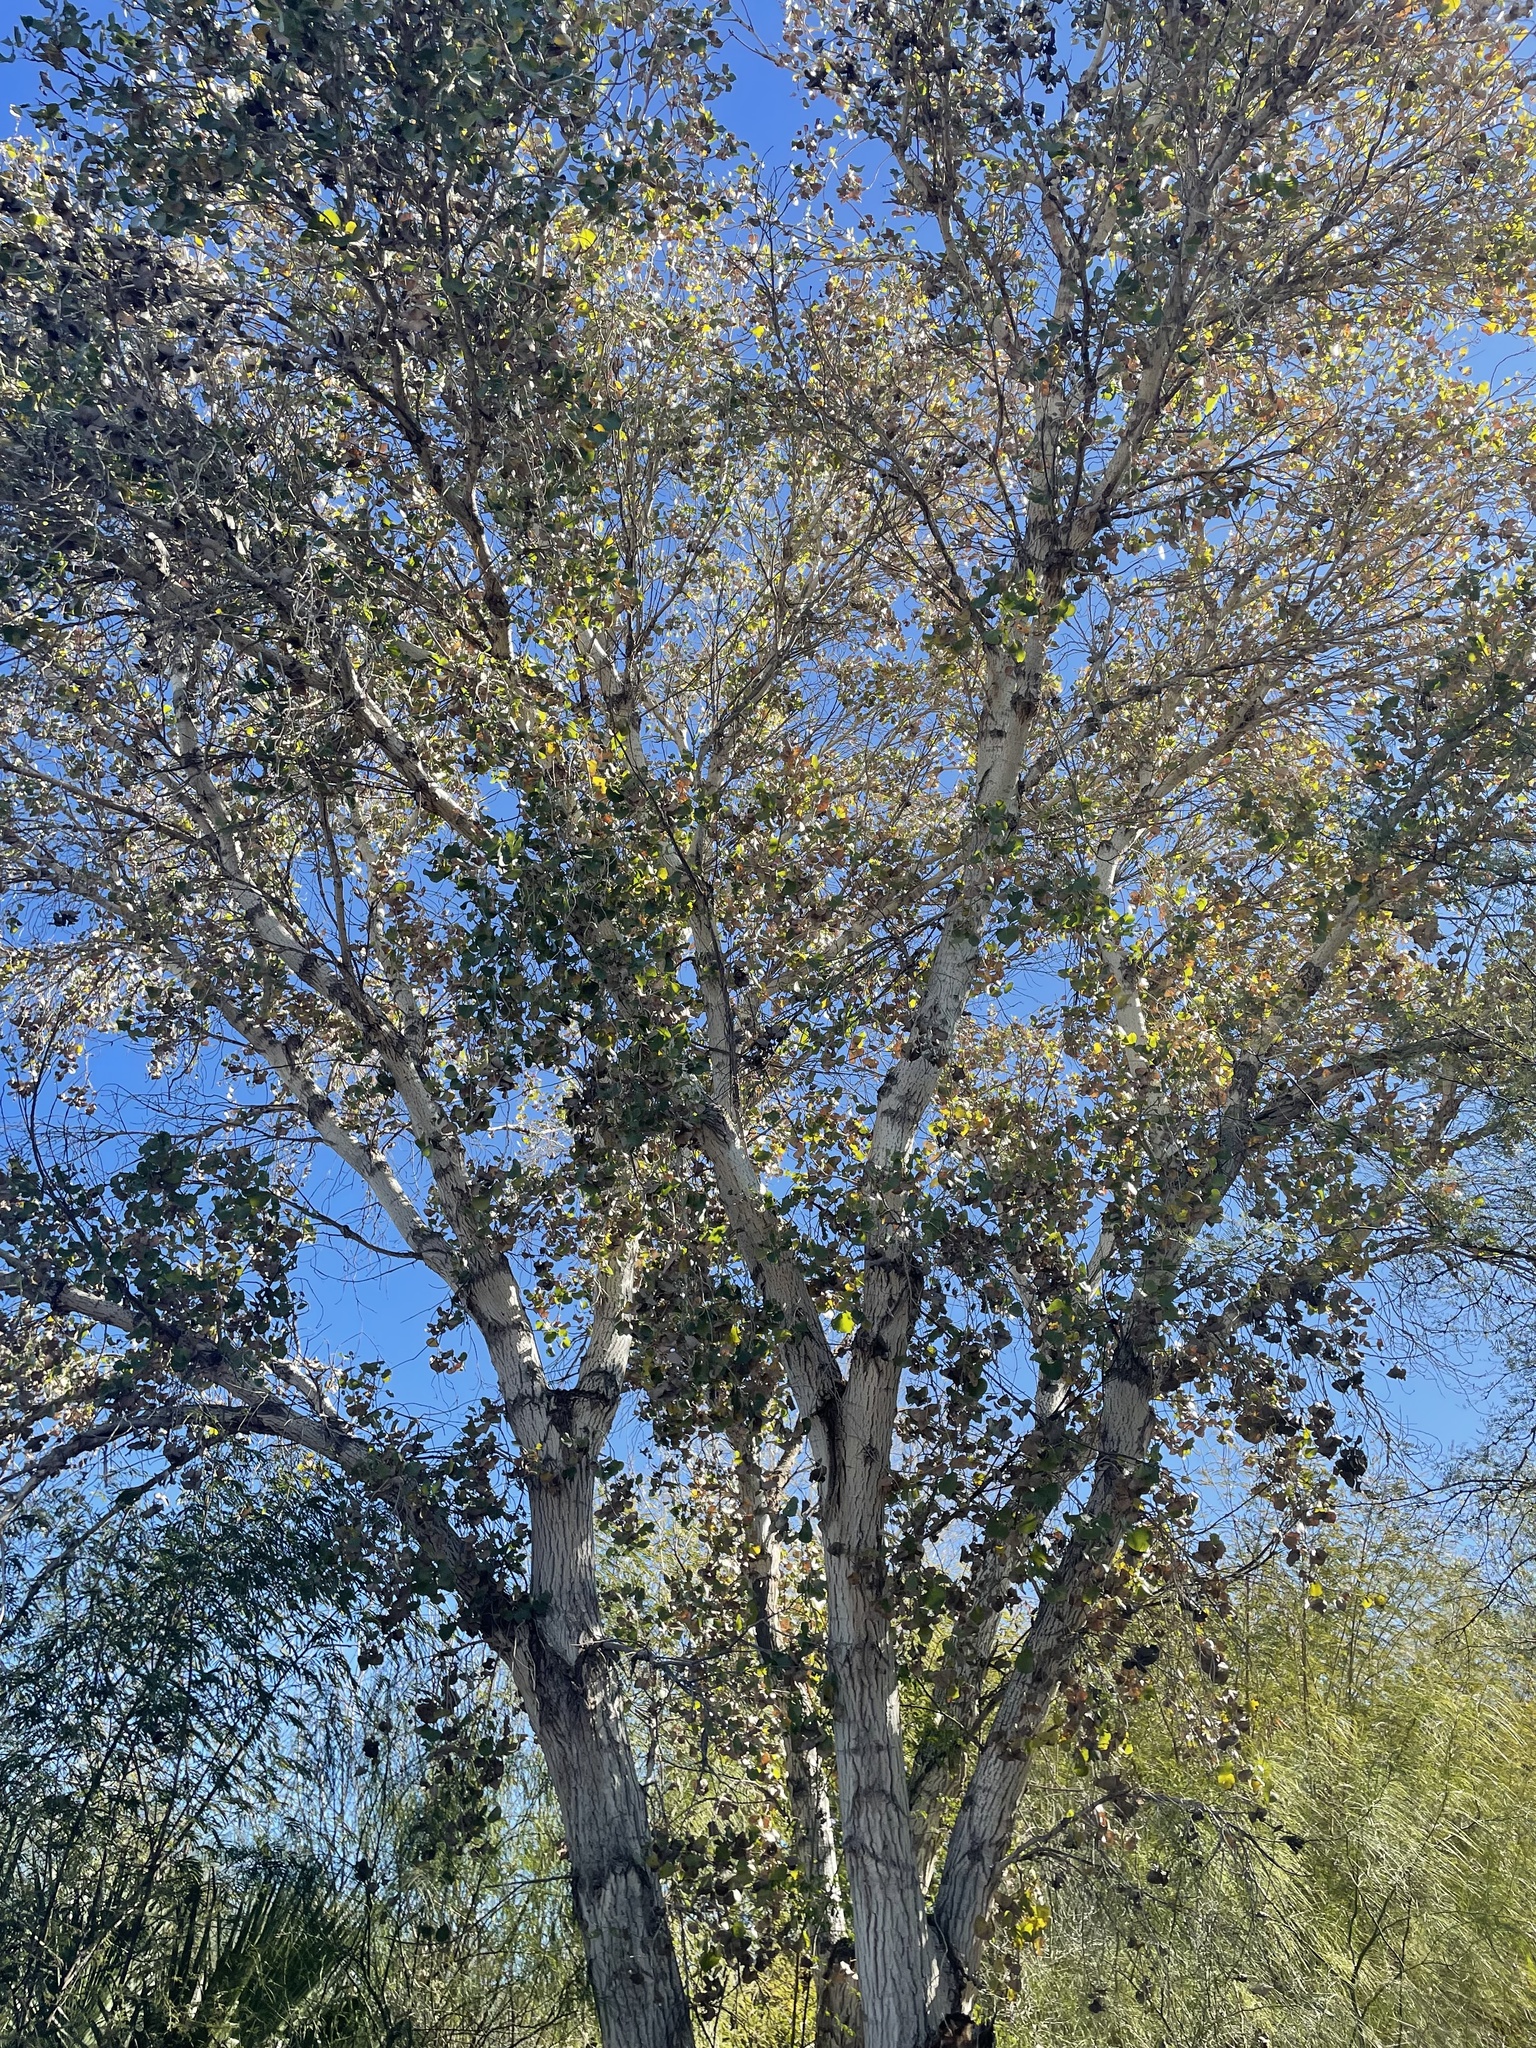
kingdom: Plantae
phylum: Tracheophyta
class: Magnoliopsida
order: Malpighiales
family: Salicaceae
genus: Populus
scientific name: Populus fremontii
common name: Fremont's cottonwood
